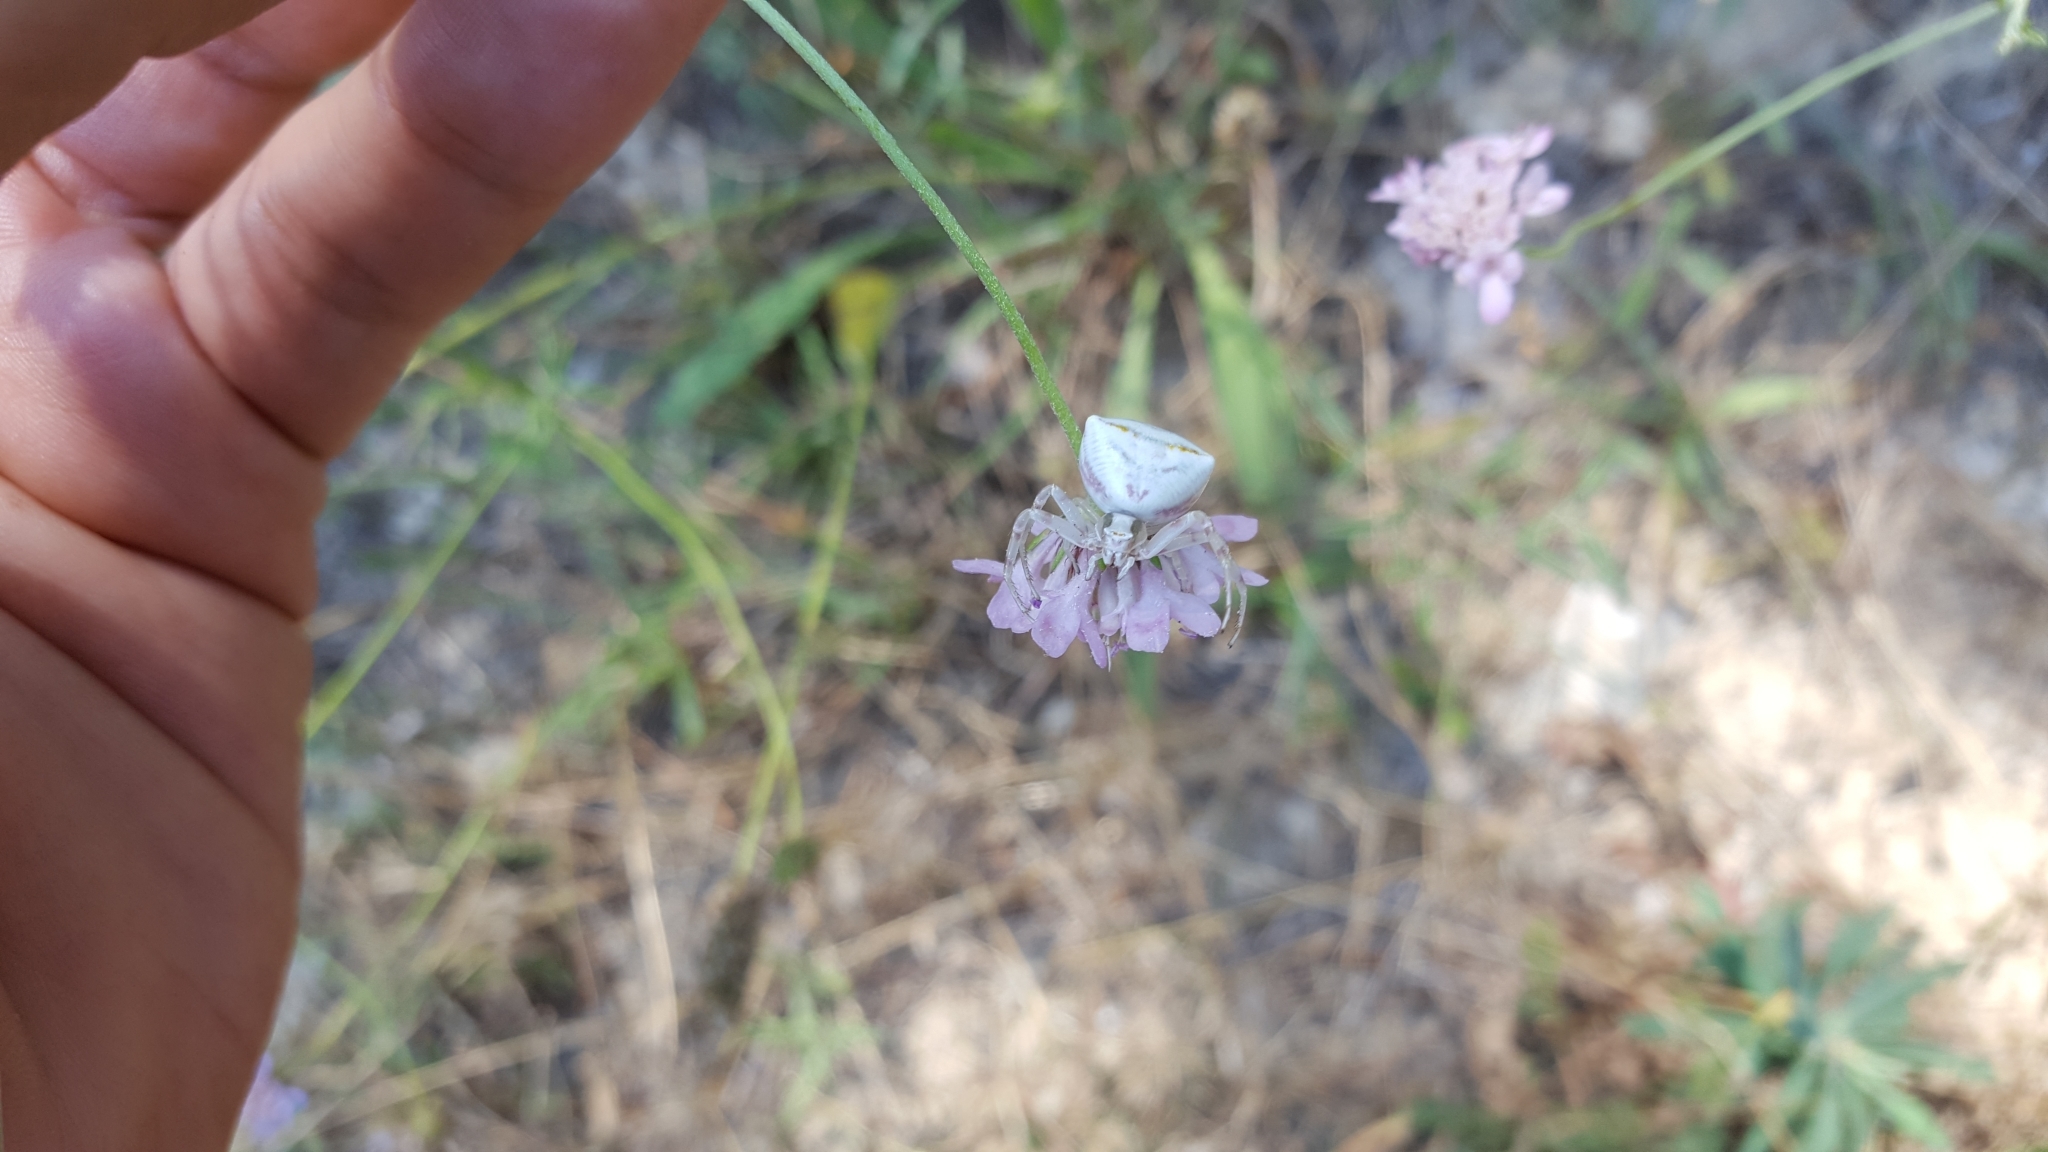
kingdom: Animalia
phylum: Arthropoda
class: Arachnida
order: Araneae
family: Thomisidae
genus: Thomisus
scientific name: Thomisus onustus
